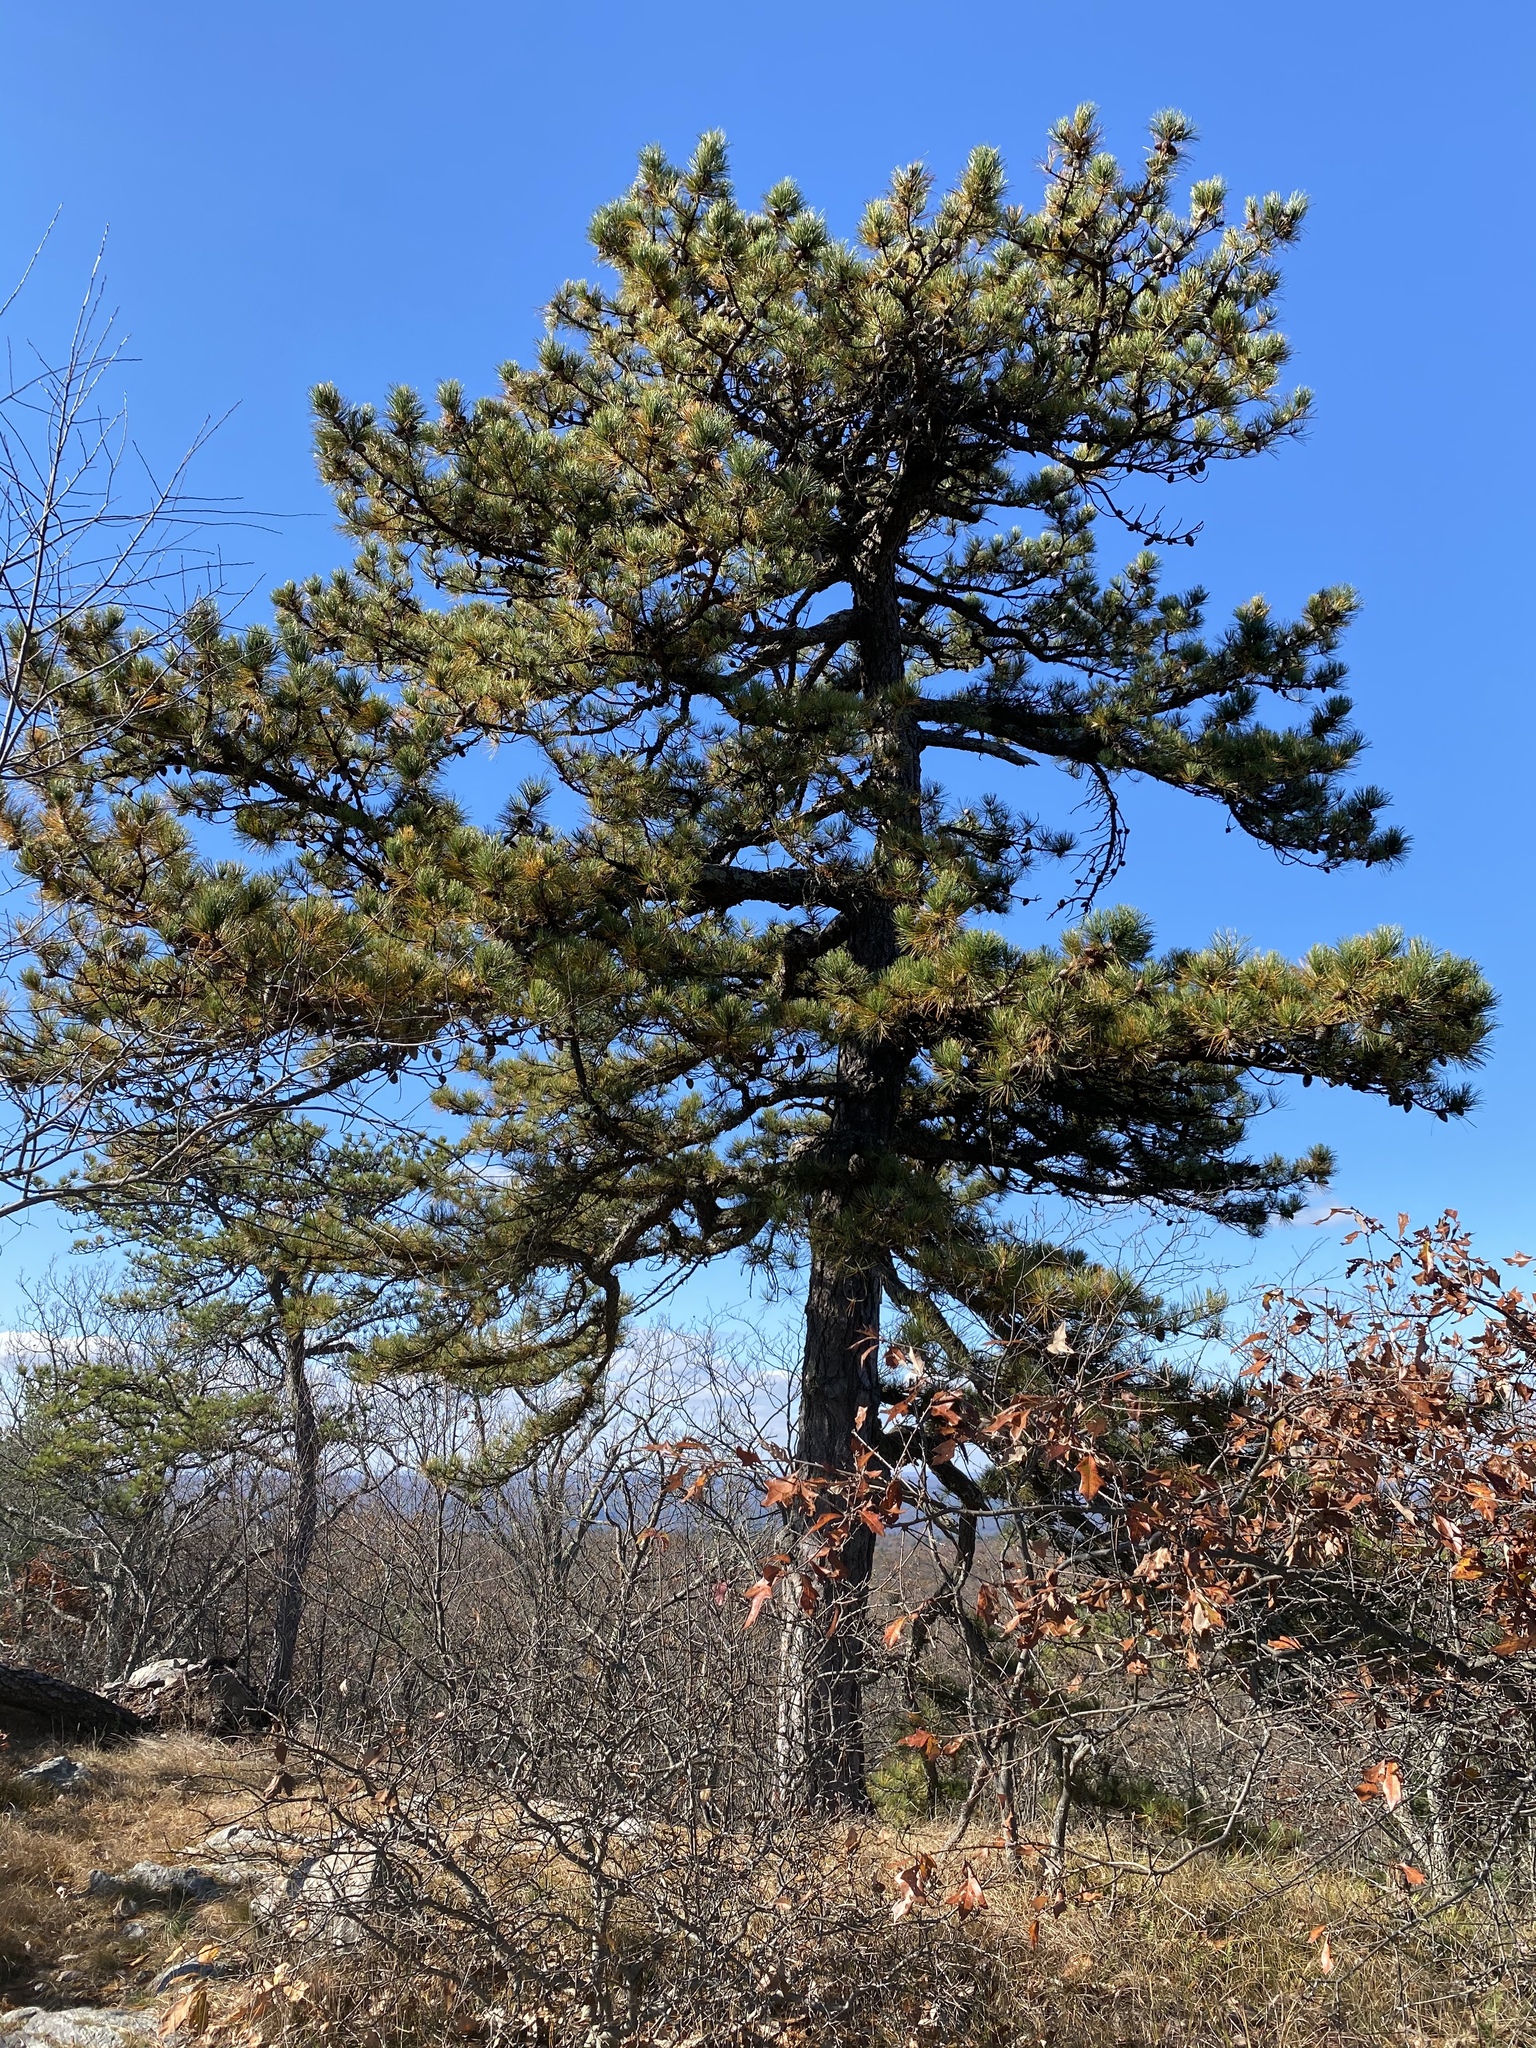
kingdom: Plantae
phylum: Tracheophyta
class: Pinopsida
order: Pinales
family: Pinaceae
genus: Pinus
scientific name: Pinus rigida
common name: Pitch pine
